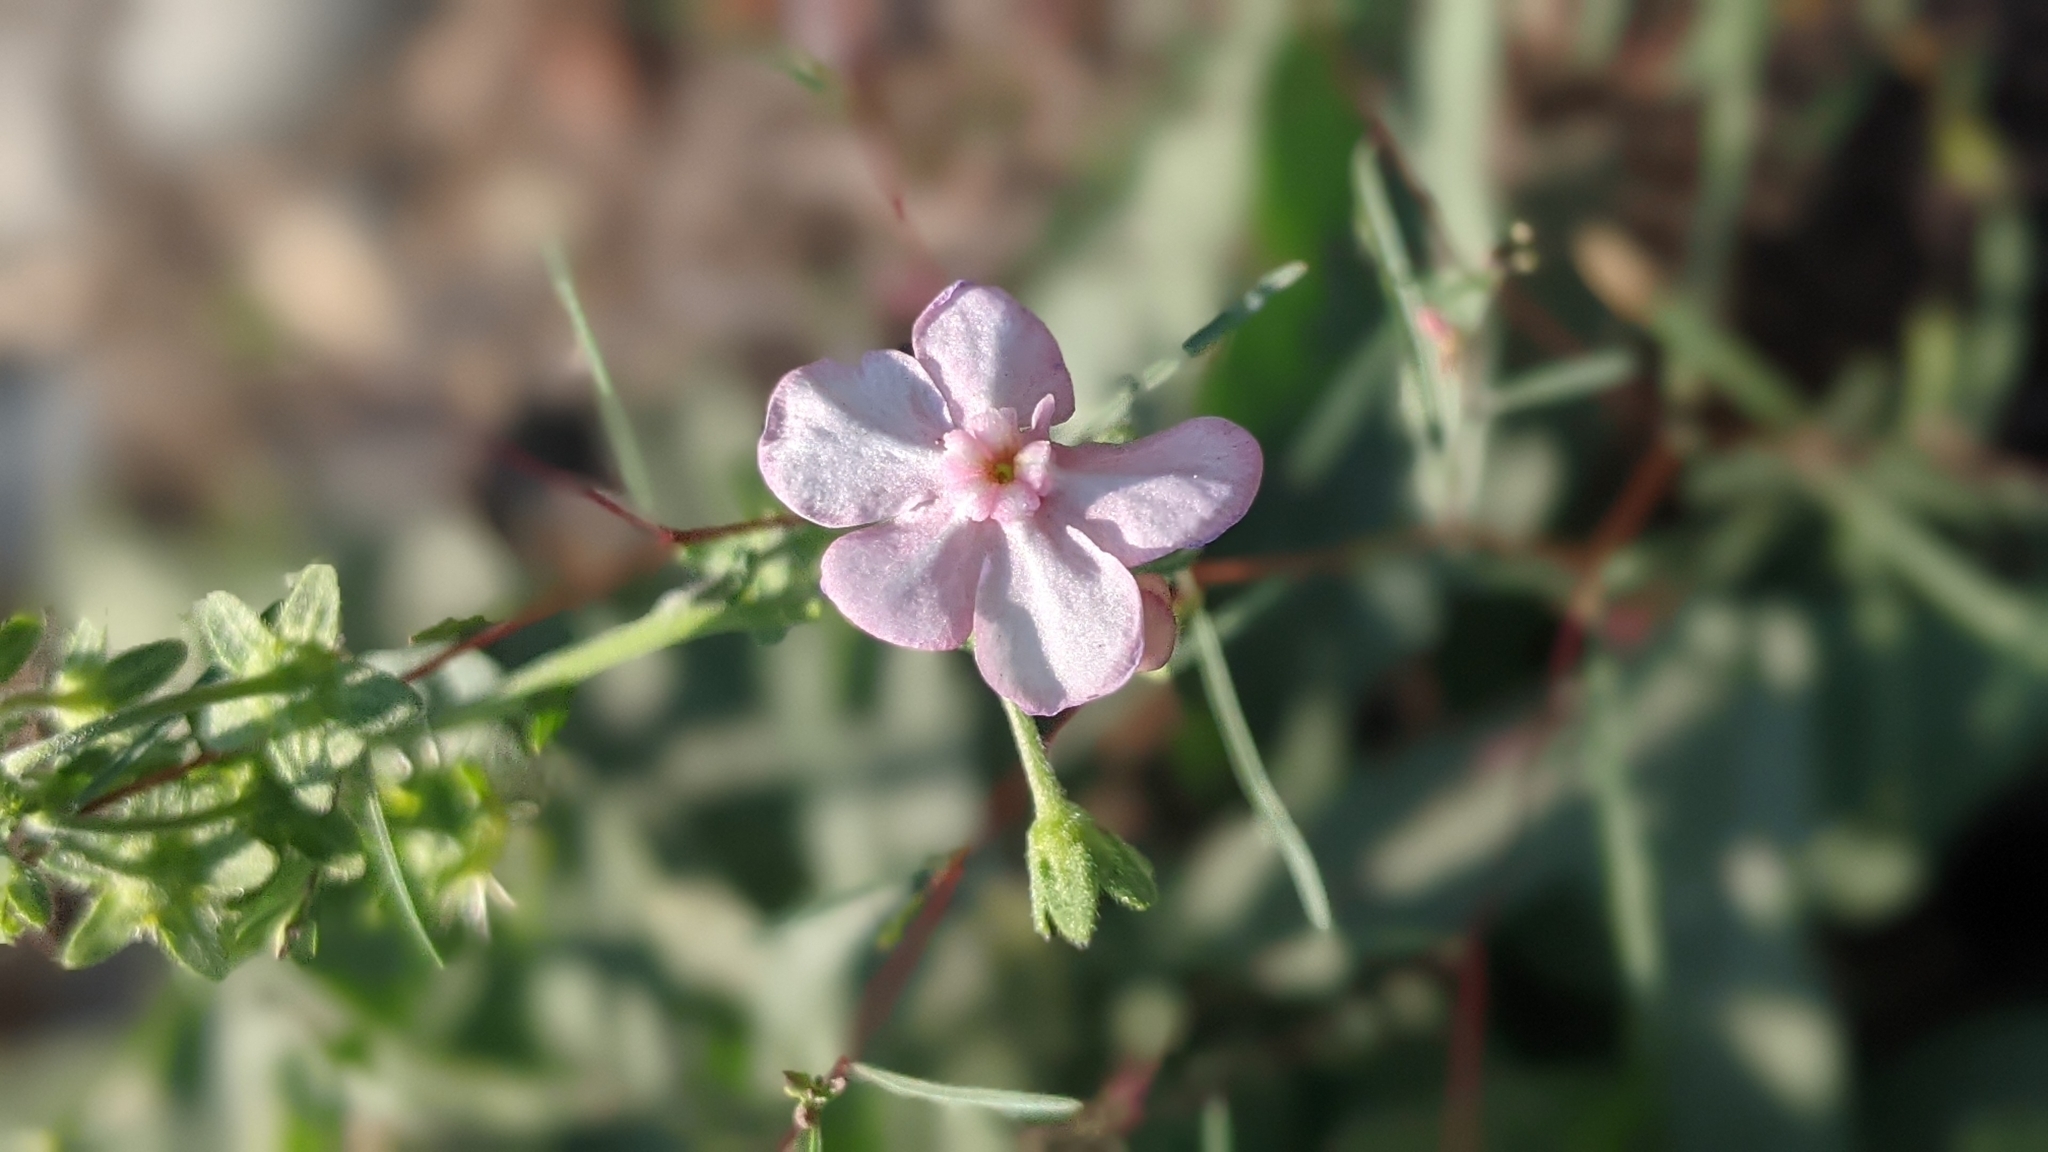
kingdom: Plantae
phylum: Tracheophyta
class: Magnoliopsida
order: Boraginales
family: Boraginaceae
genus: Hackelia
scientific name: Hackelia mundula
